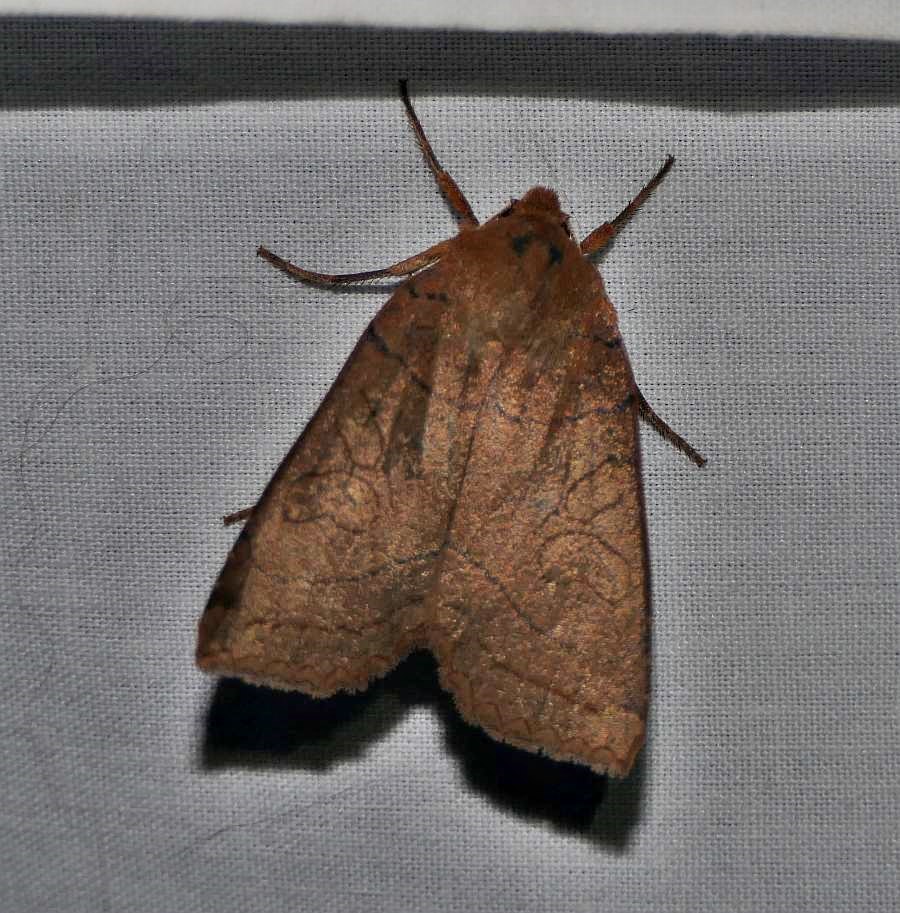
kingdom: Animalia
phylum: Arthropoda
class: Insecta
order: Lepidoptera
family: Noctuidae
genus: Metaxaglaea
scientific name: Metaxaglaea inulta
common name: Unsated sallow
